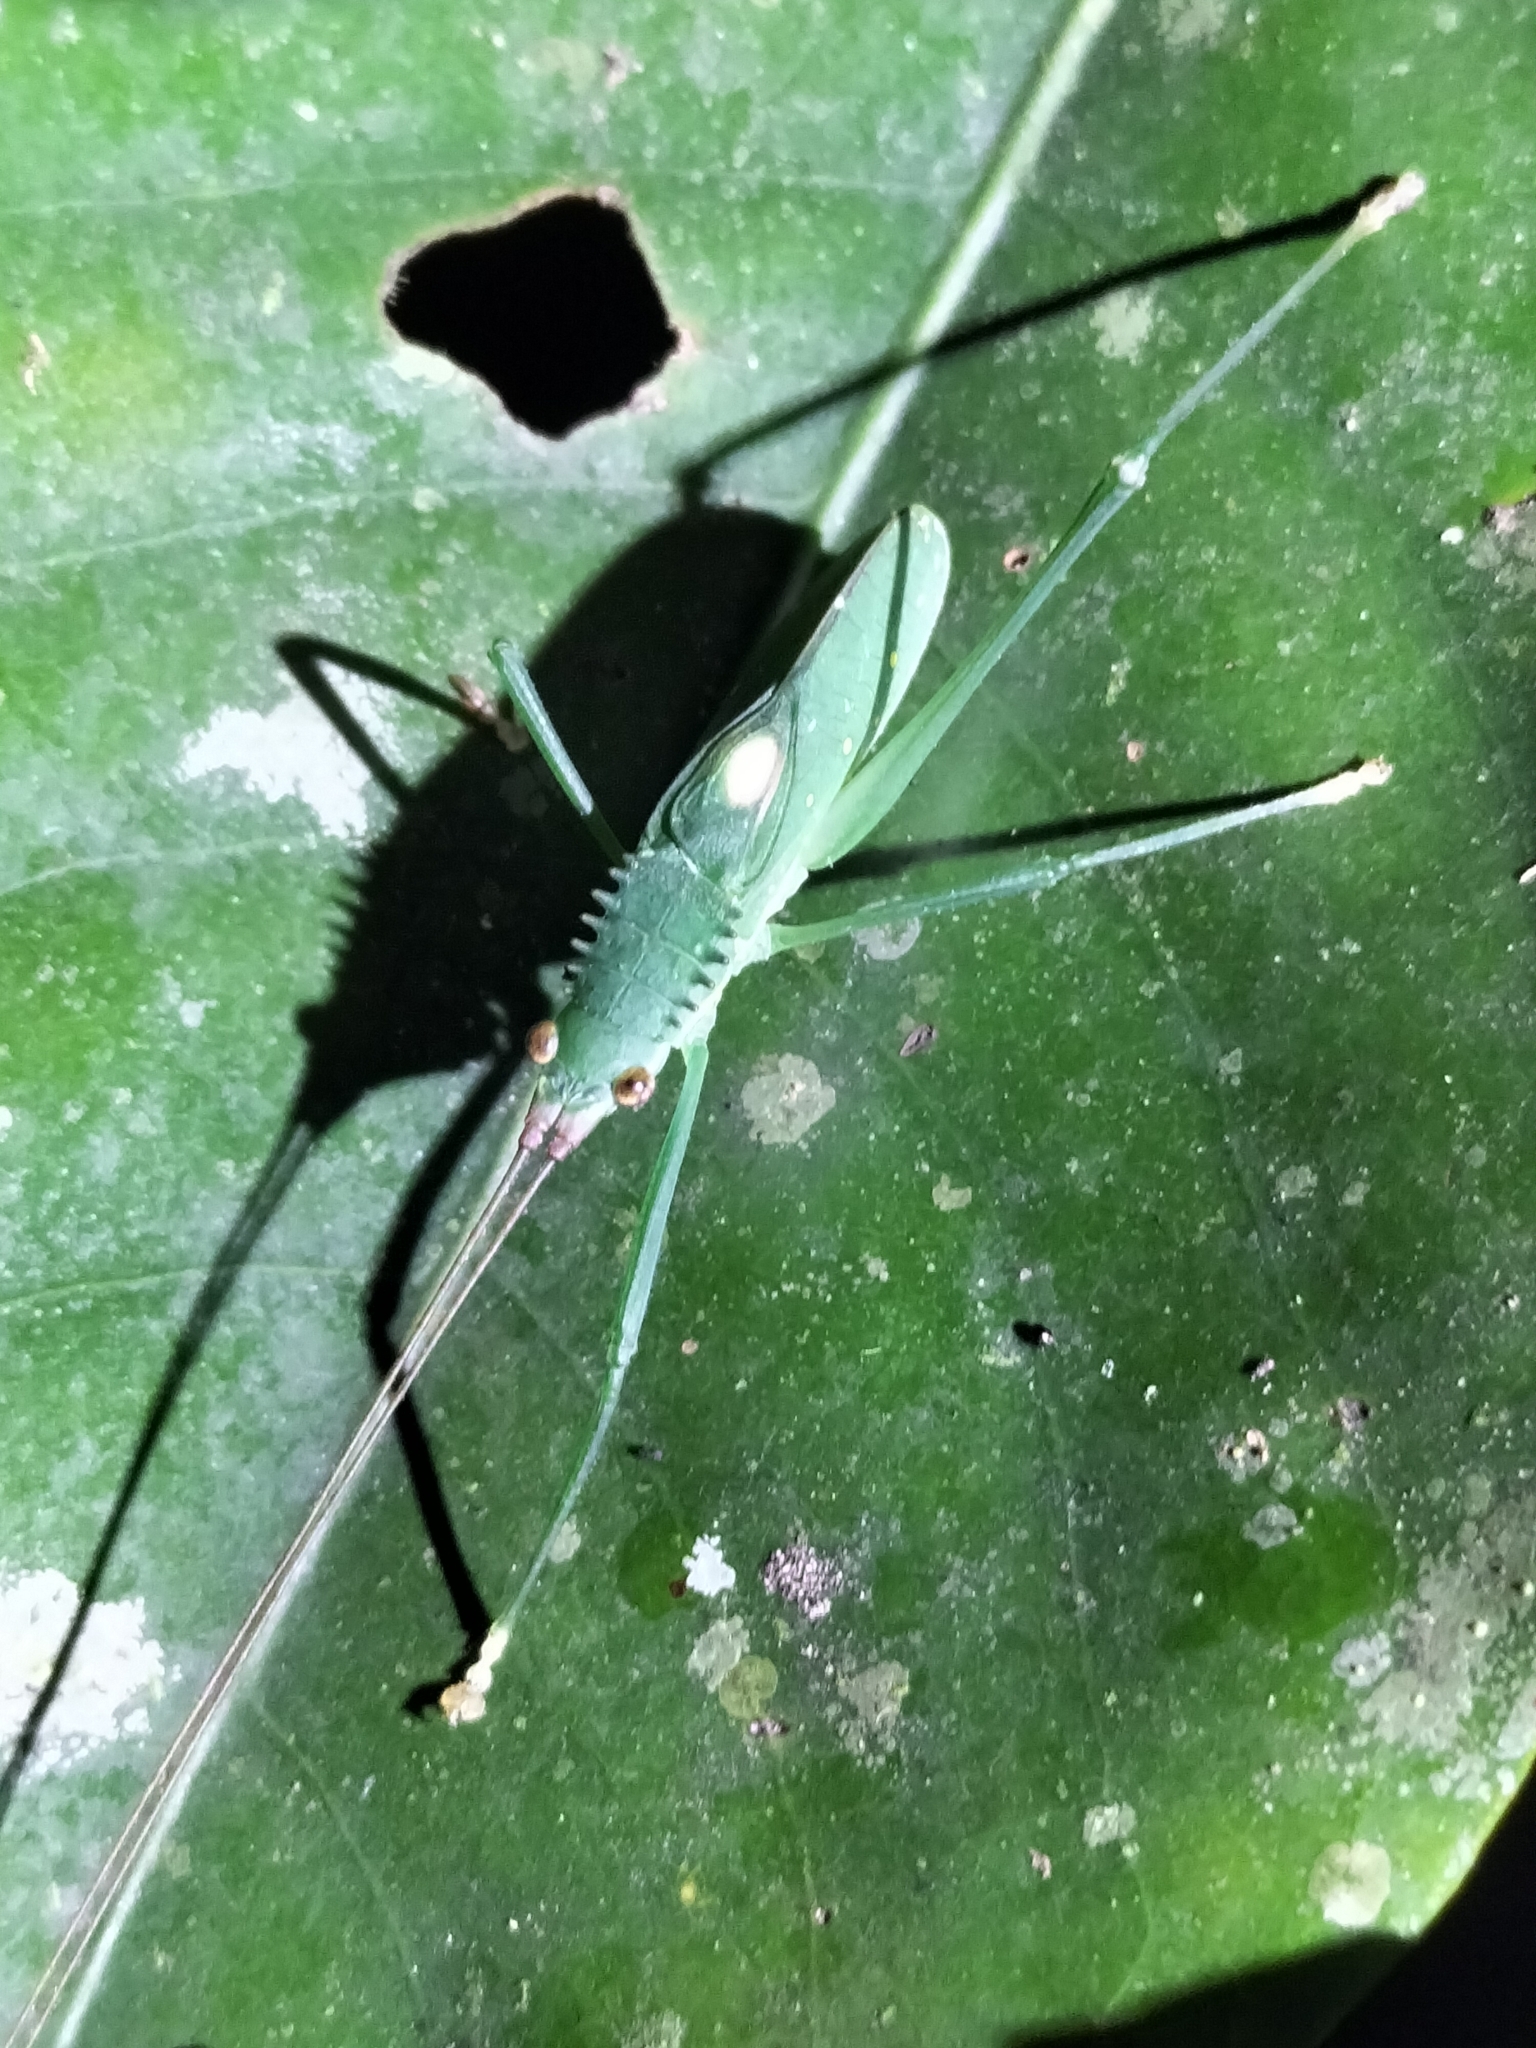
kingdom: Animalia
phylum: Arthropoda
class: Insecta
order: Orthoptera
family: Tettigoniidae
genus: Chloracantha
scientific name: Chloracantha lampra
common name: Delicate false-leaf katydid
